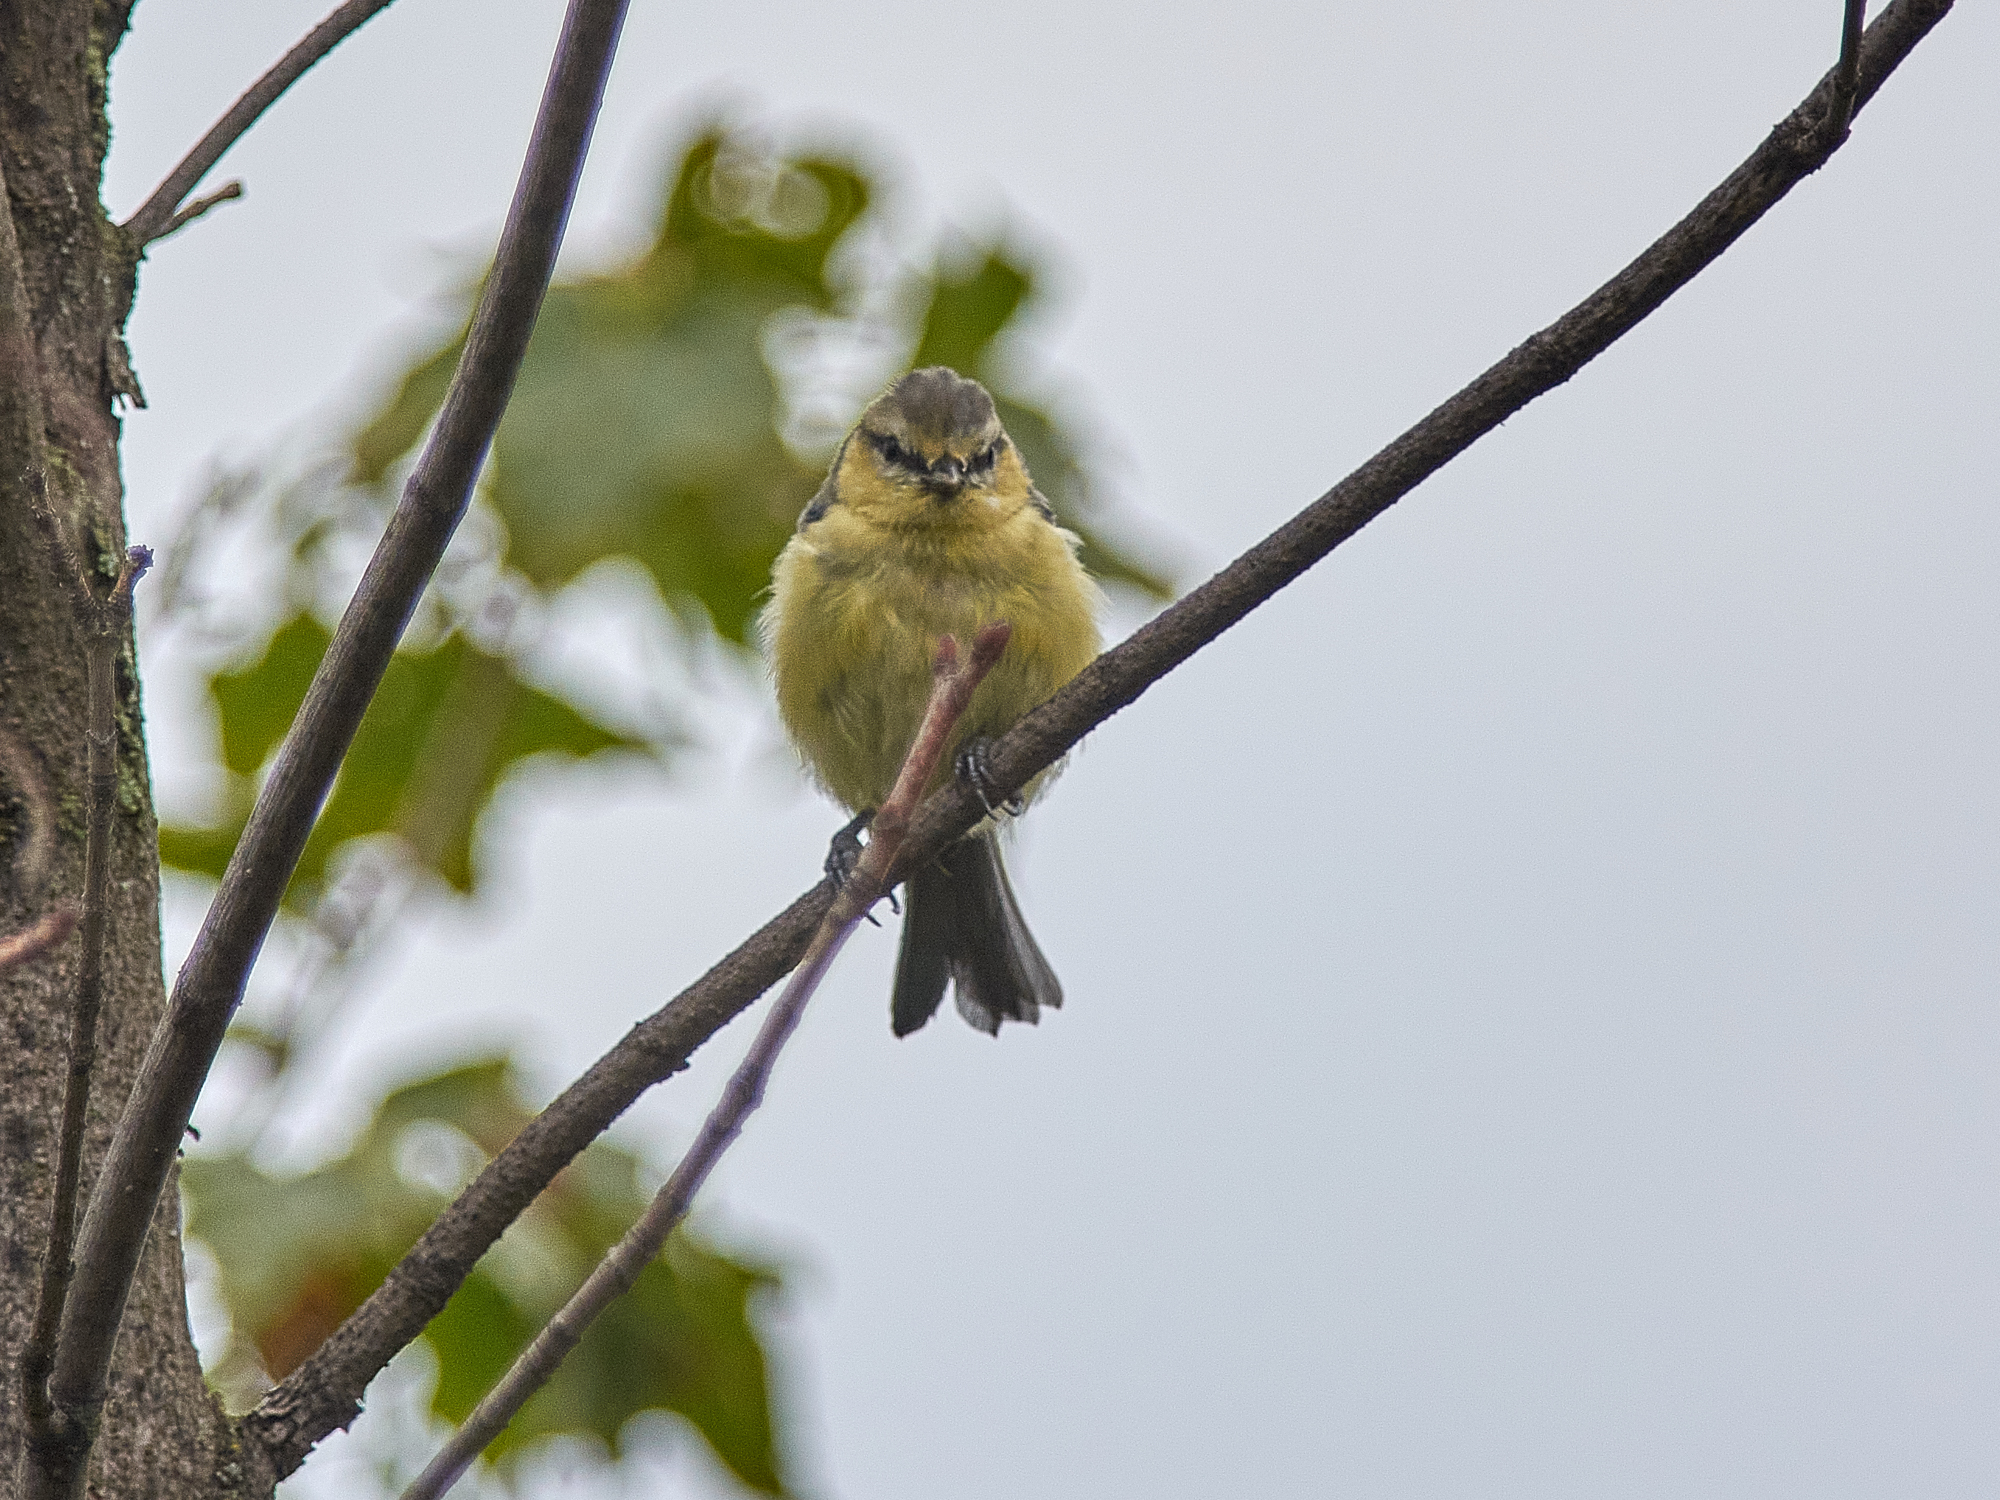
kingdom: Animalia
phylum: Chordata
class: Aves
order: Passeriformes
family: Paridae
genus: Cyanistes
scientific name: Cyanistes caeruleus
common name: Eurasian blue tit
